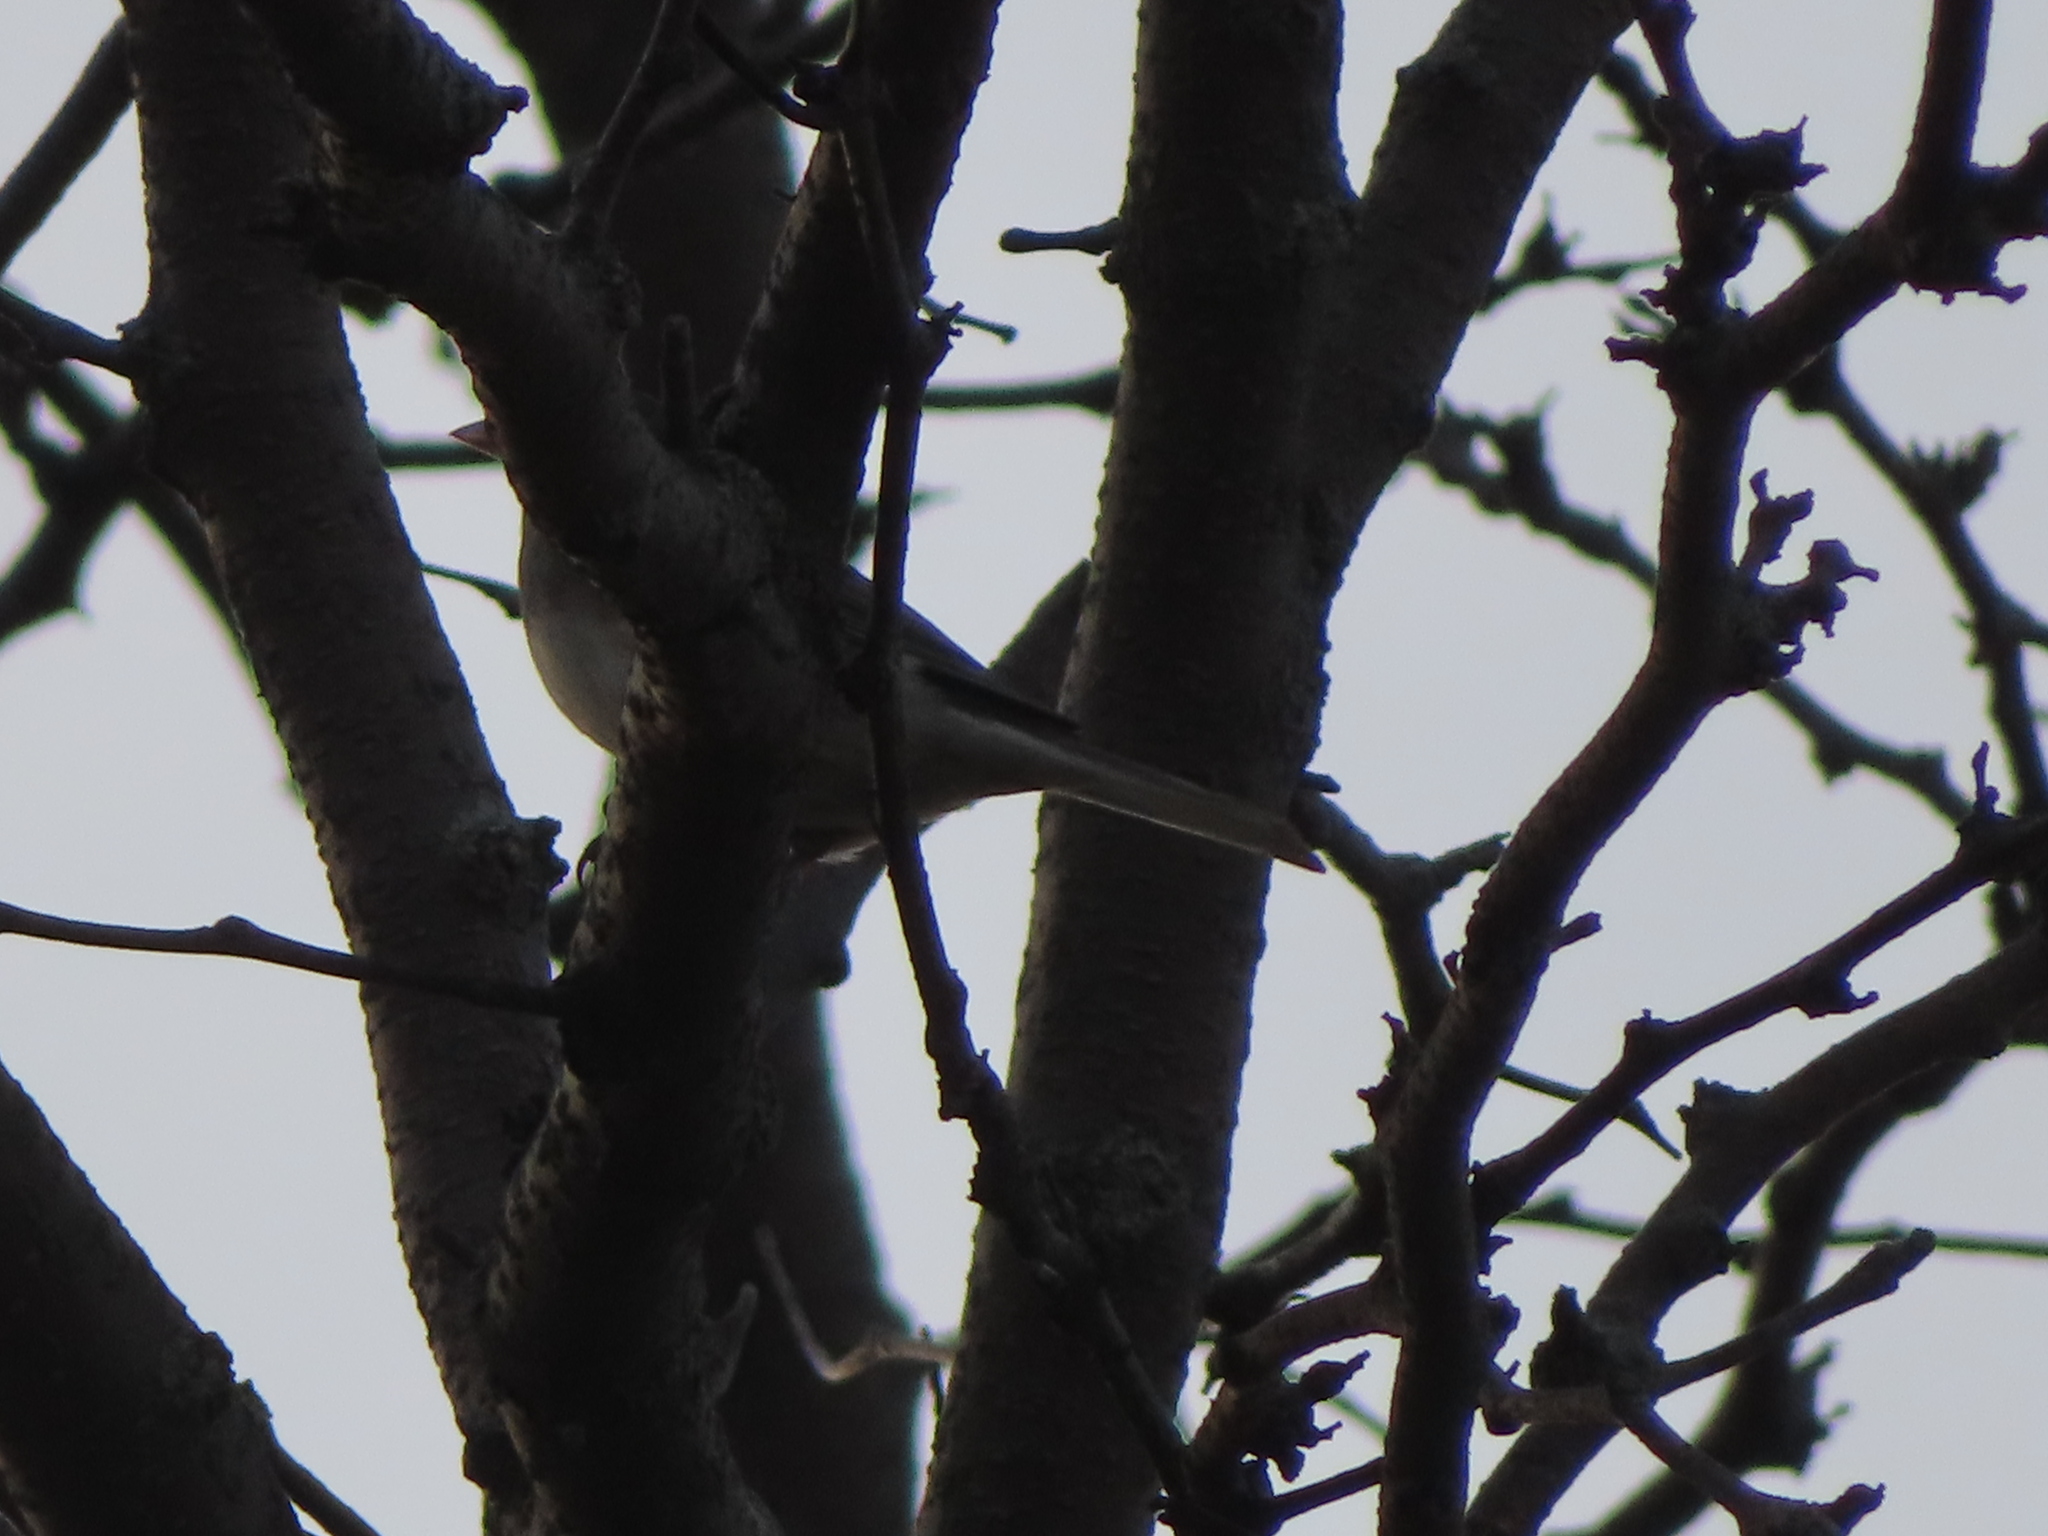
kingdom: Animalia
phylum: Chordata
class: Aves
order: Passeriformes
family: Passerellidae
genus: Junco
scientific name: Junco hyemalis
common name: Dark-eyed junco
